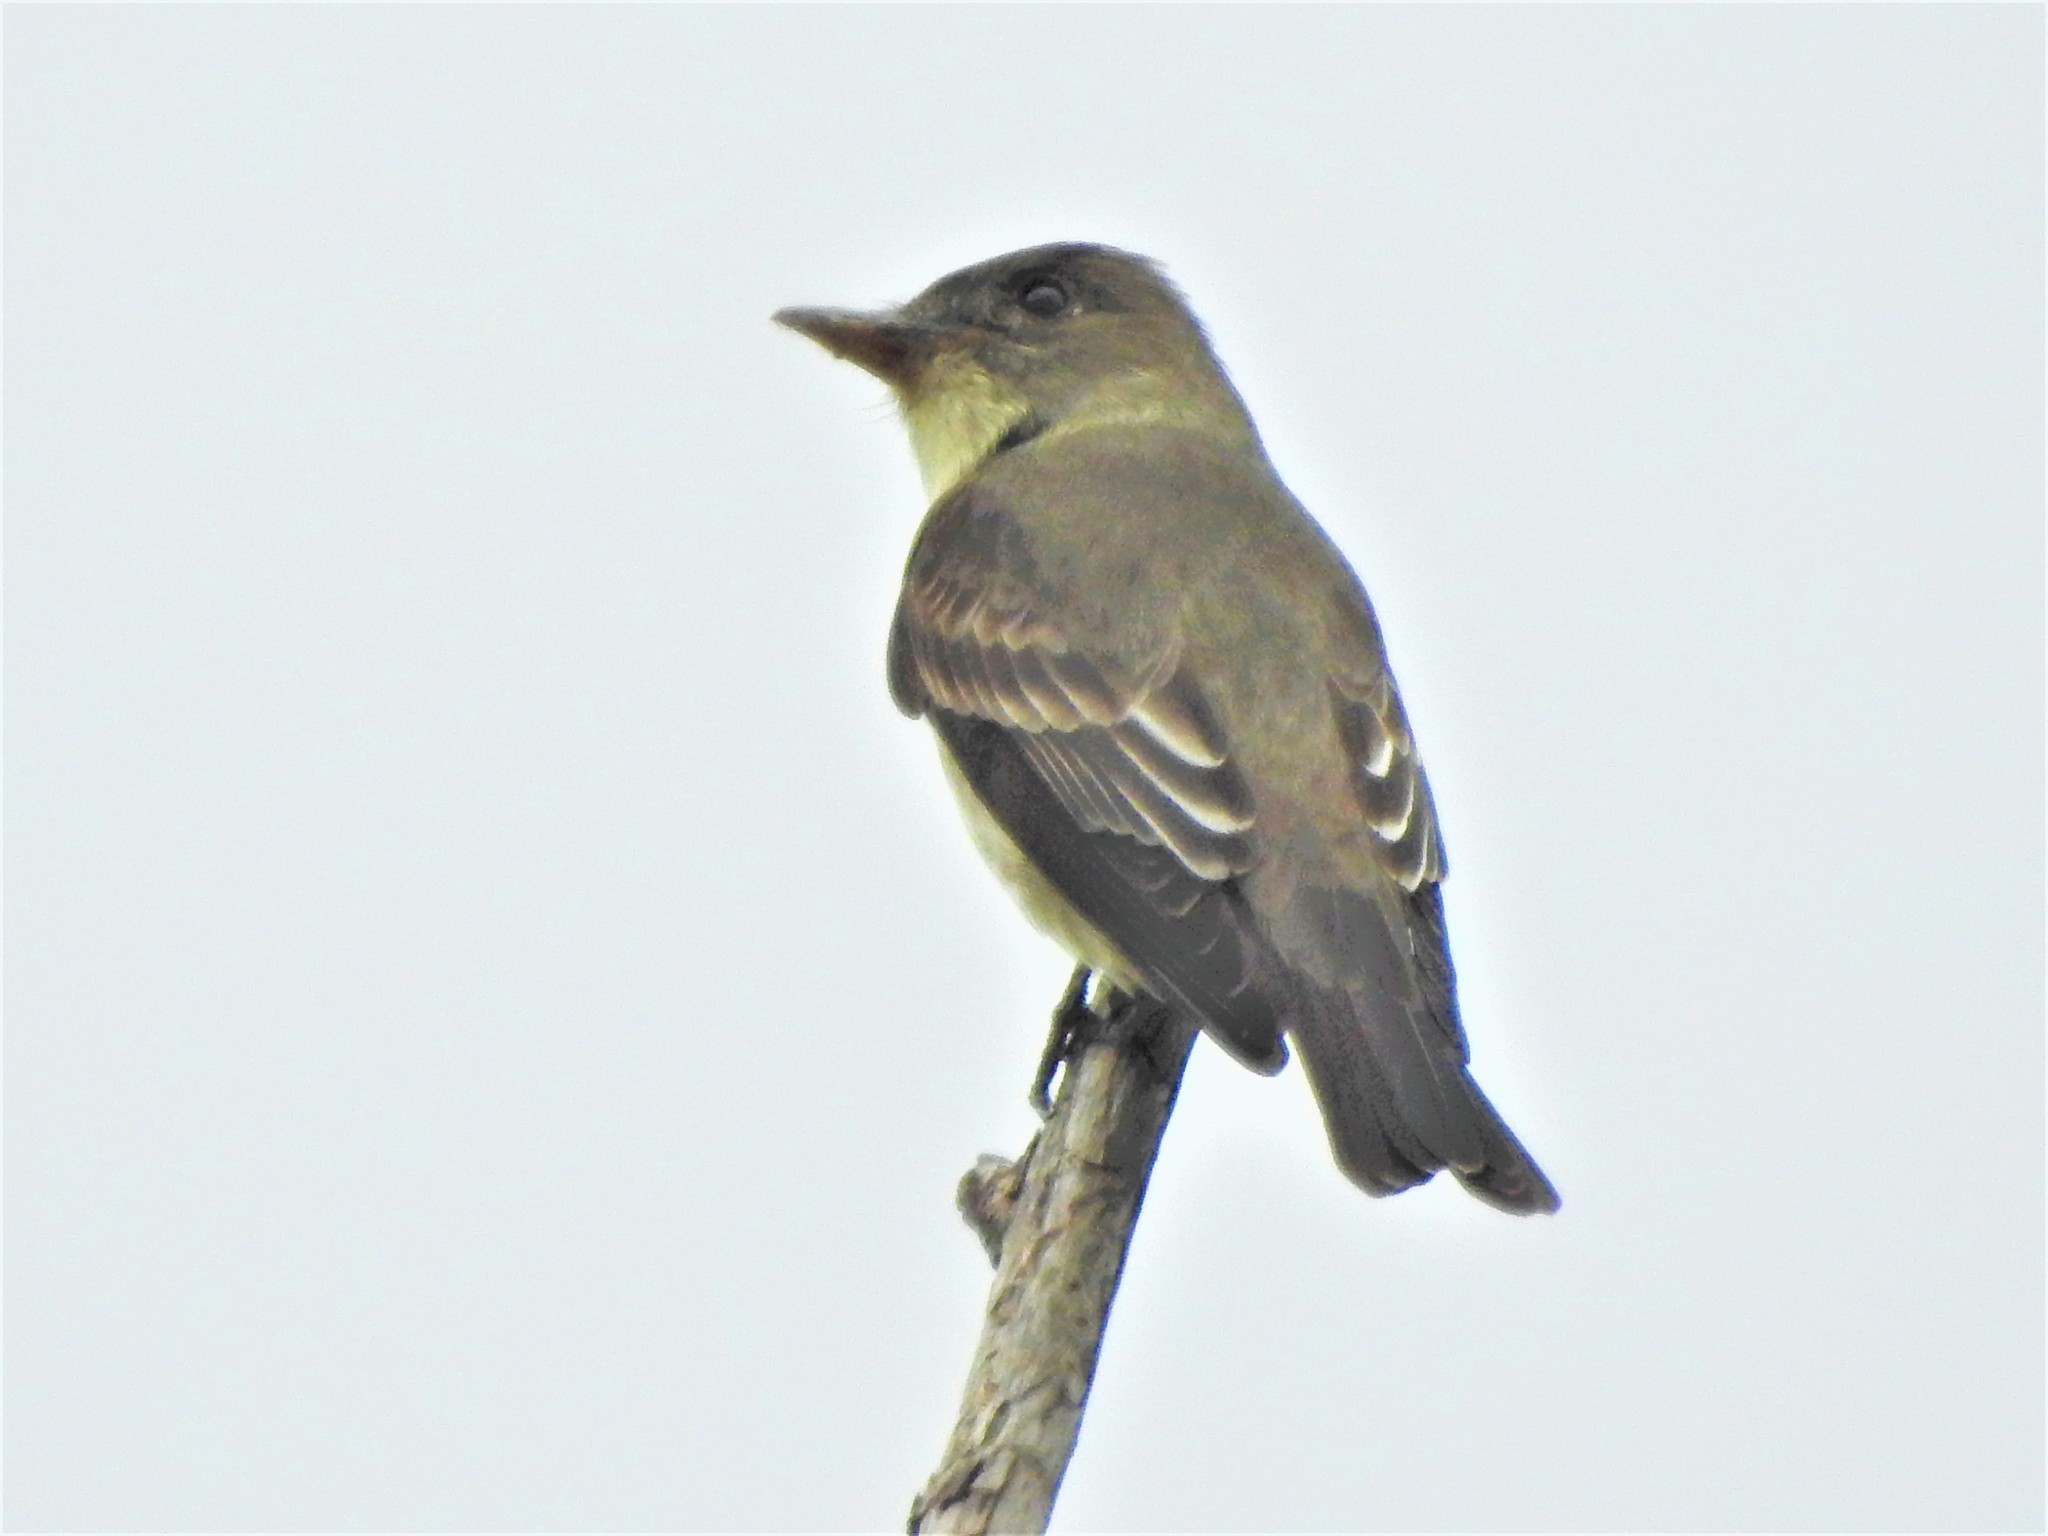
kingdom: Animalia
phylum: Chordata
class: Aves
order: Passeriformes
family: Tyrannidae
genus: Contopus
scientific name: Contopus cooperi
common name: Olive-sided flycatcher
